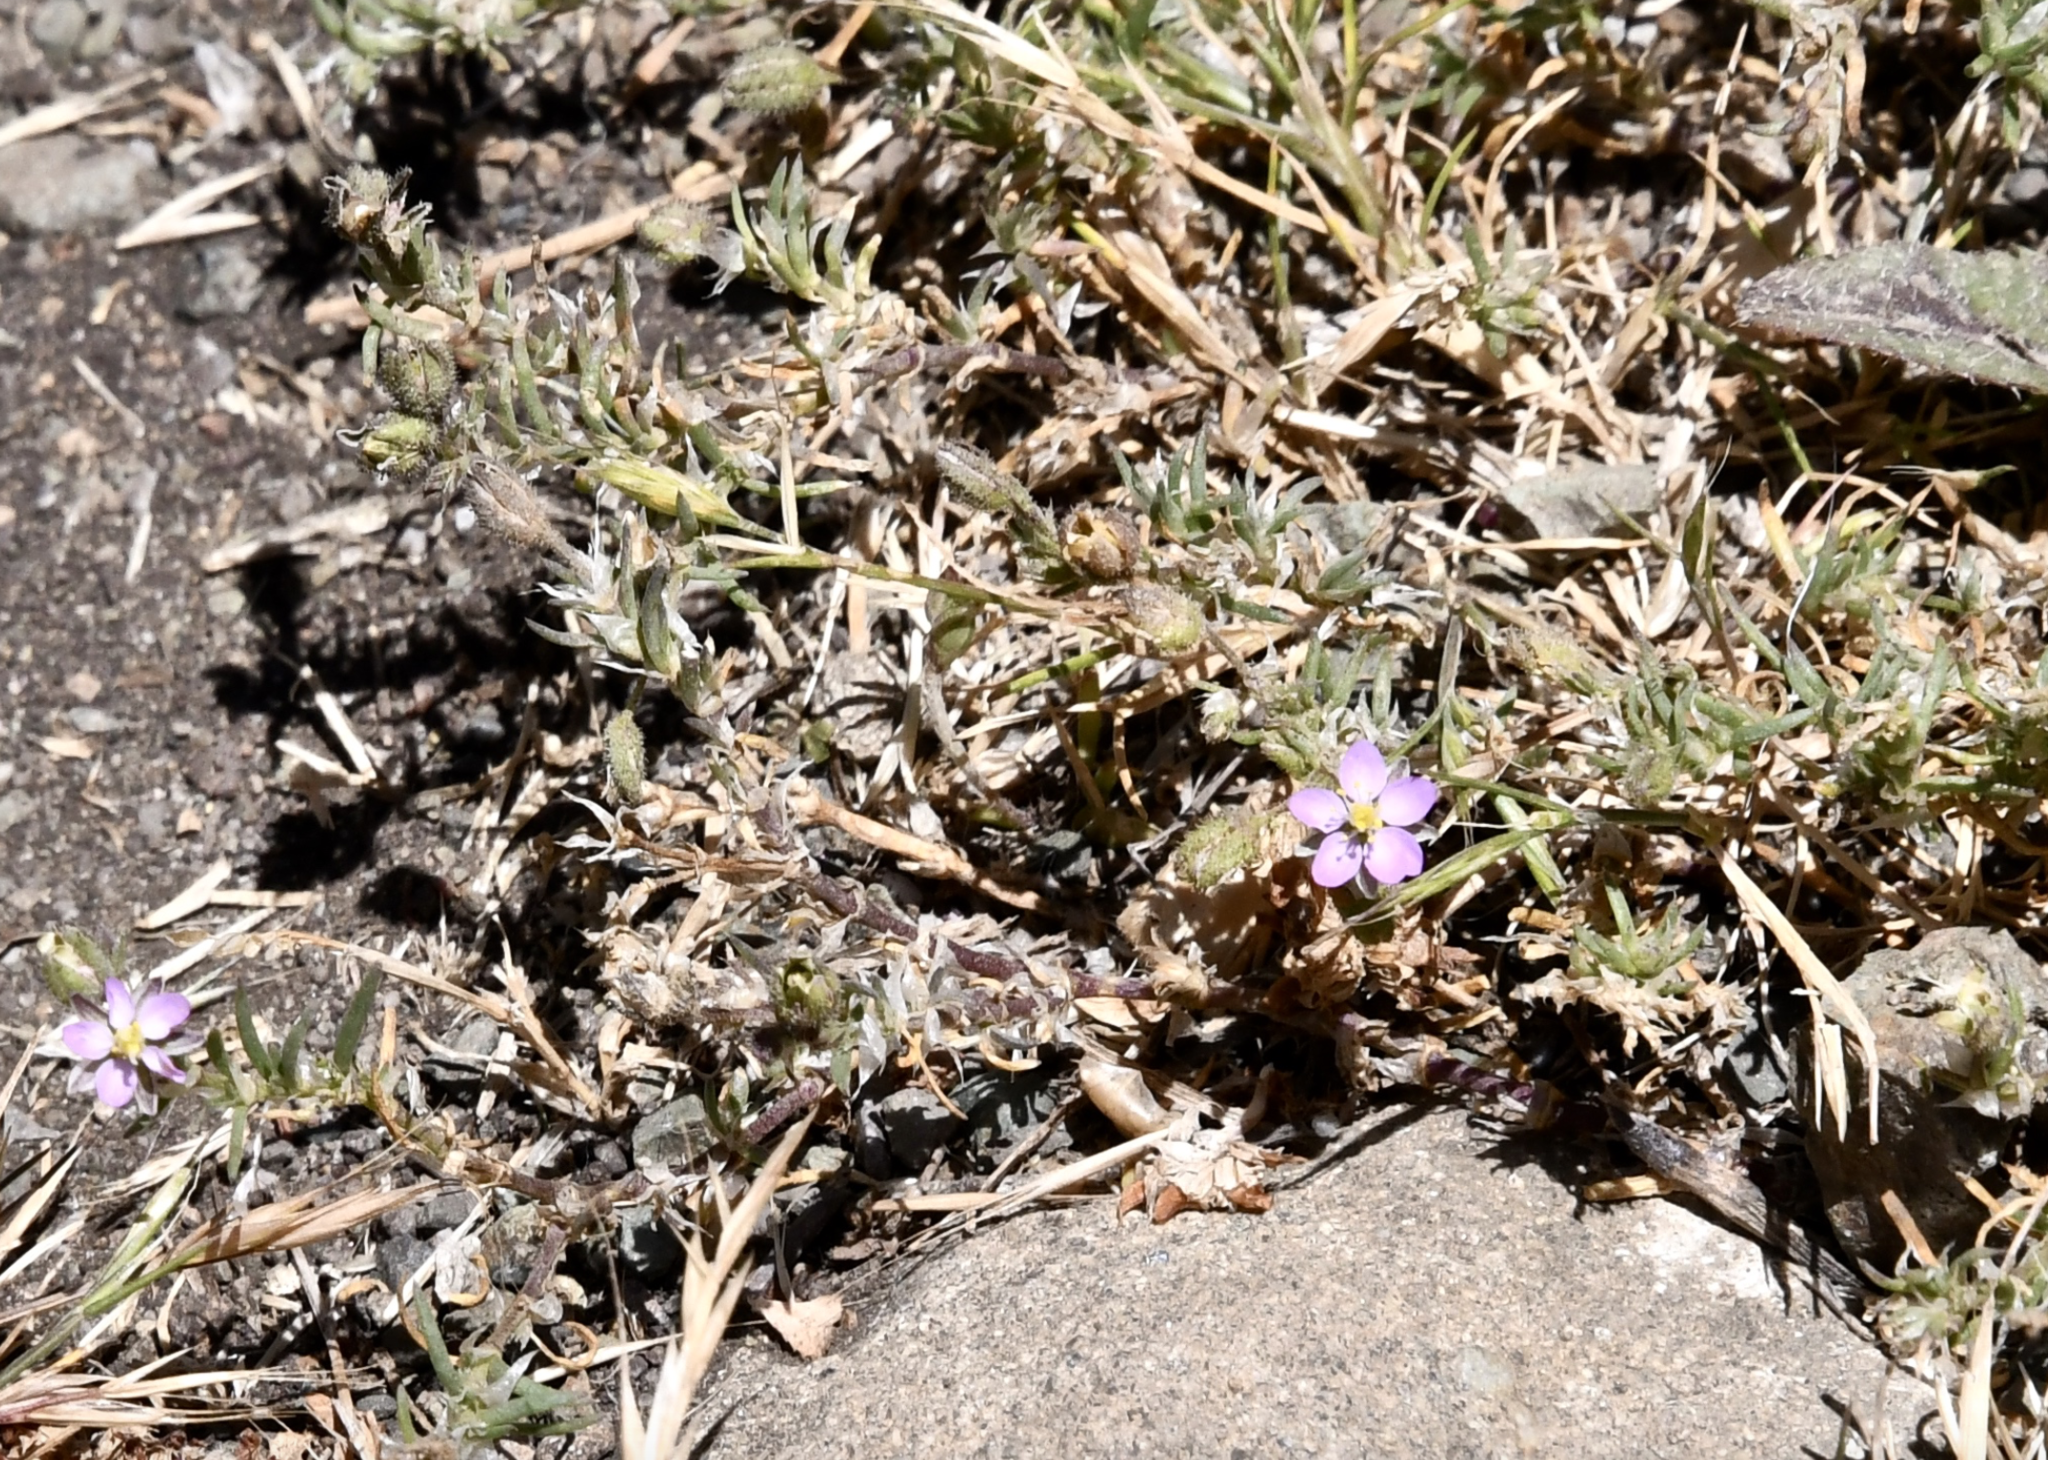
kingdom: Plantae
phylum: Tracheophyta
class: Magnoliopsida
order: Caryophyllales
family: Caryophyllaceae
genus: Spergularia
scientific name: Spergularia rubra
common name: Red sand-spurrey
